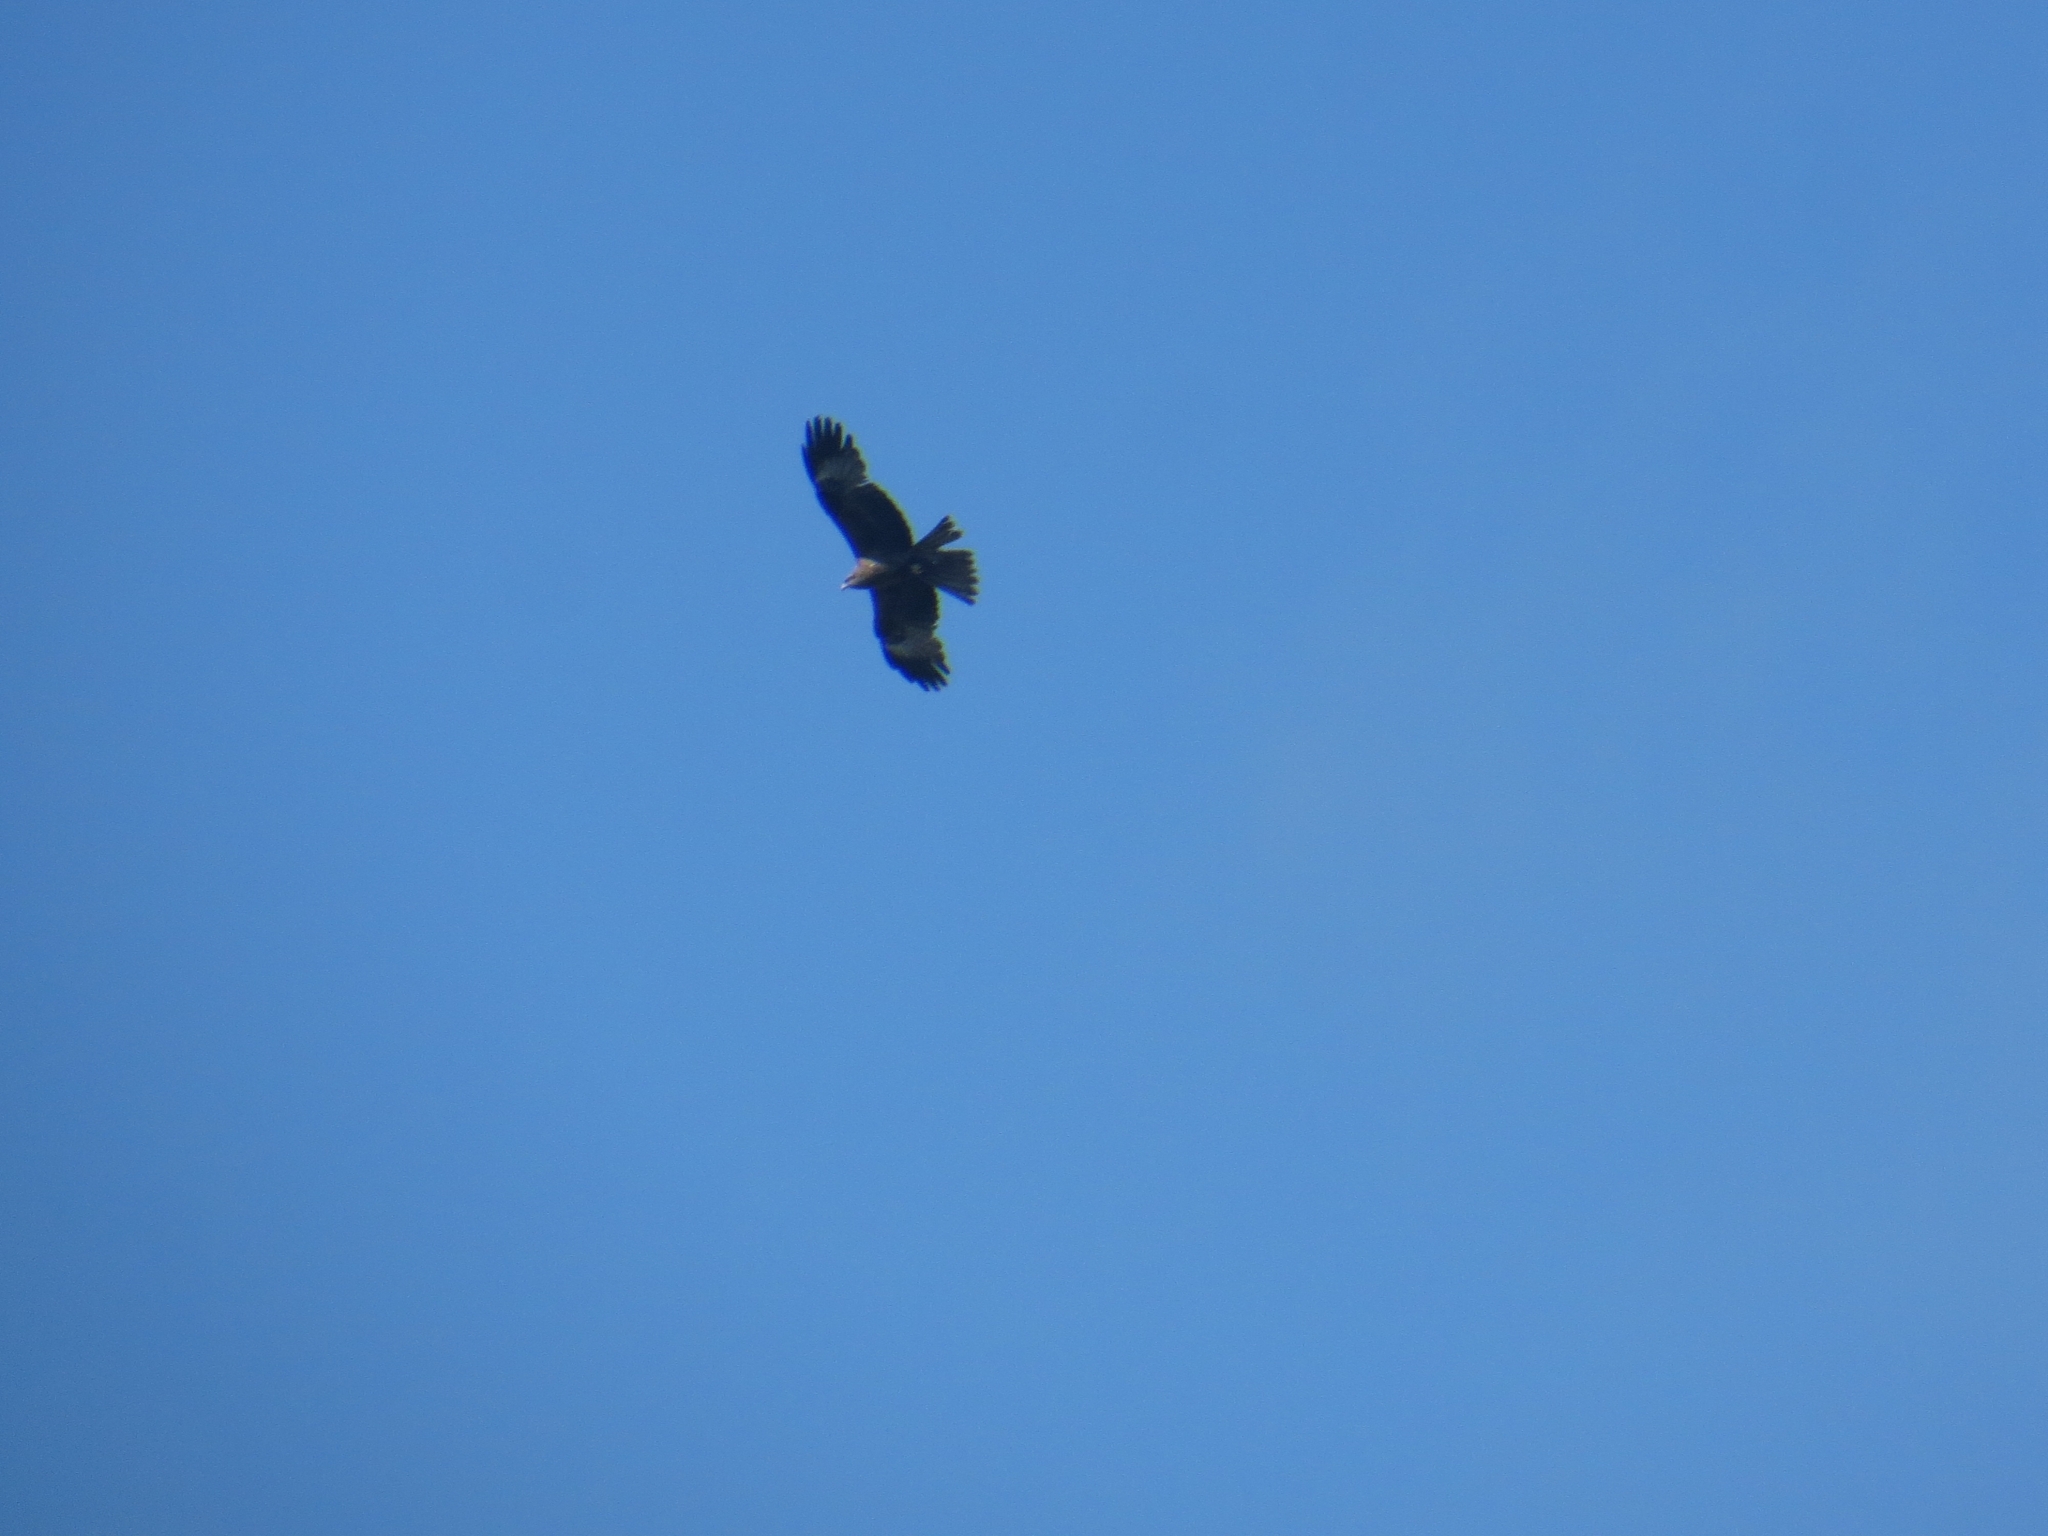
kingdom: Animalia
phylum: Chordata
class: Aves
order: Accipitriformes
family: Accipitridae
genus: Milvus
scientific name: Milvus migrans
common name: Black kite
